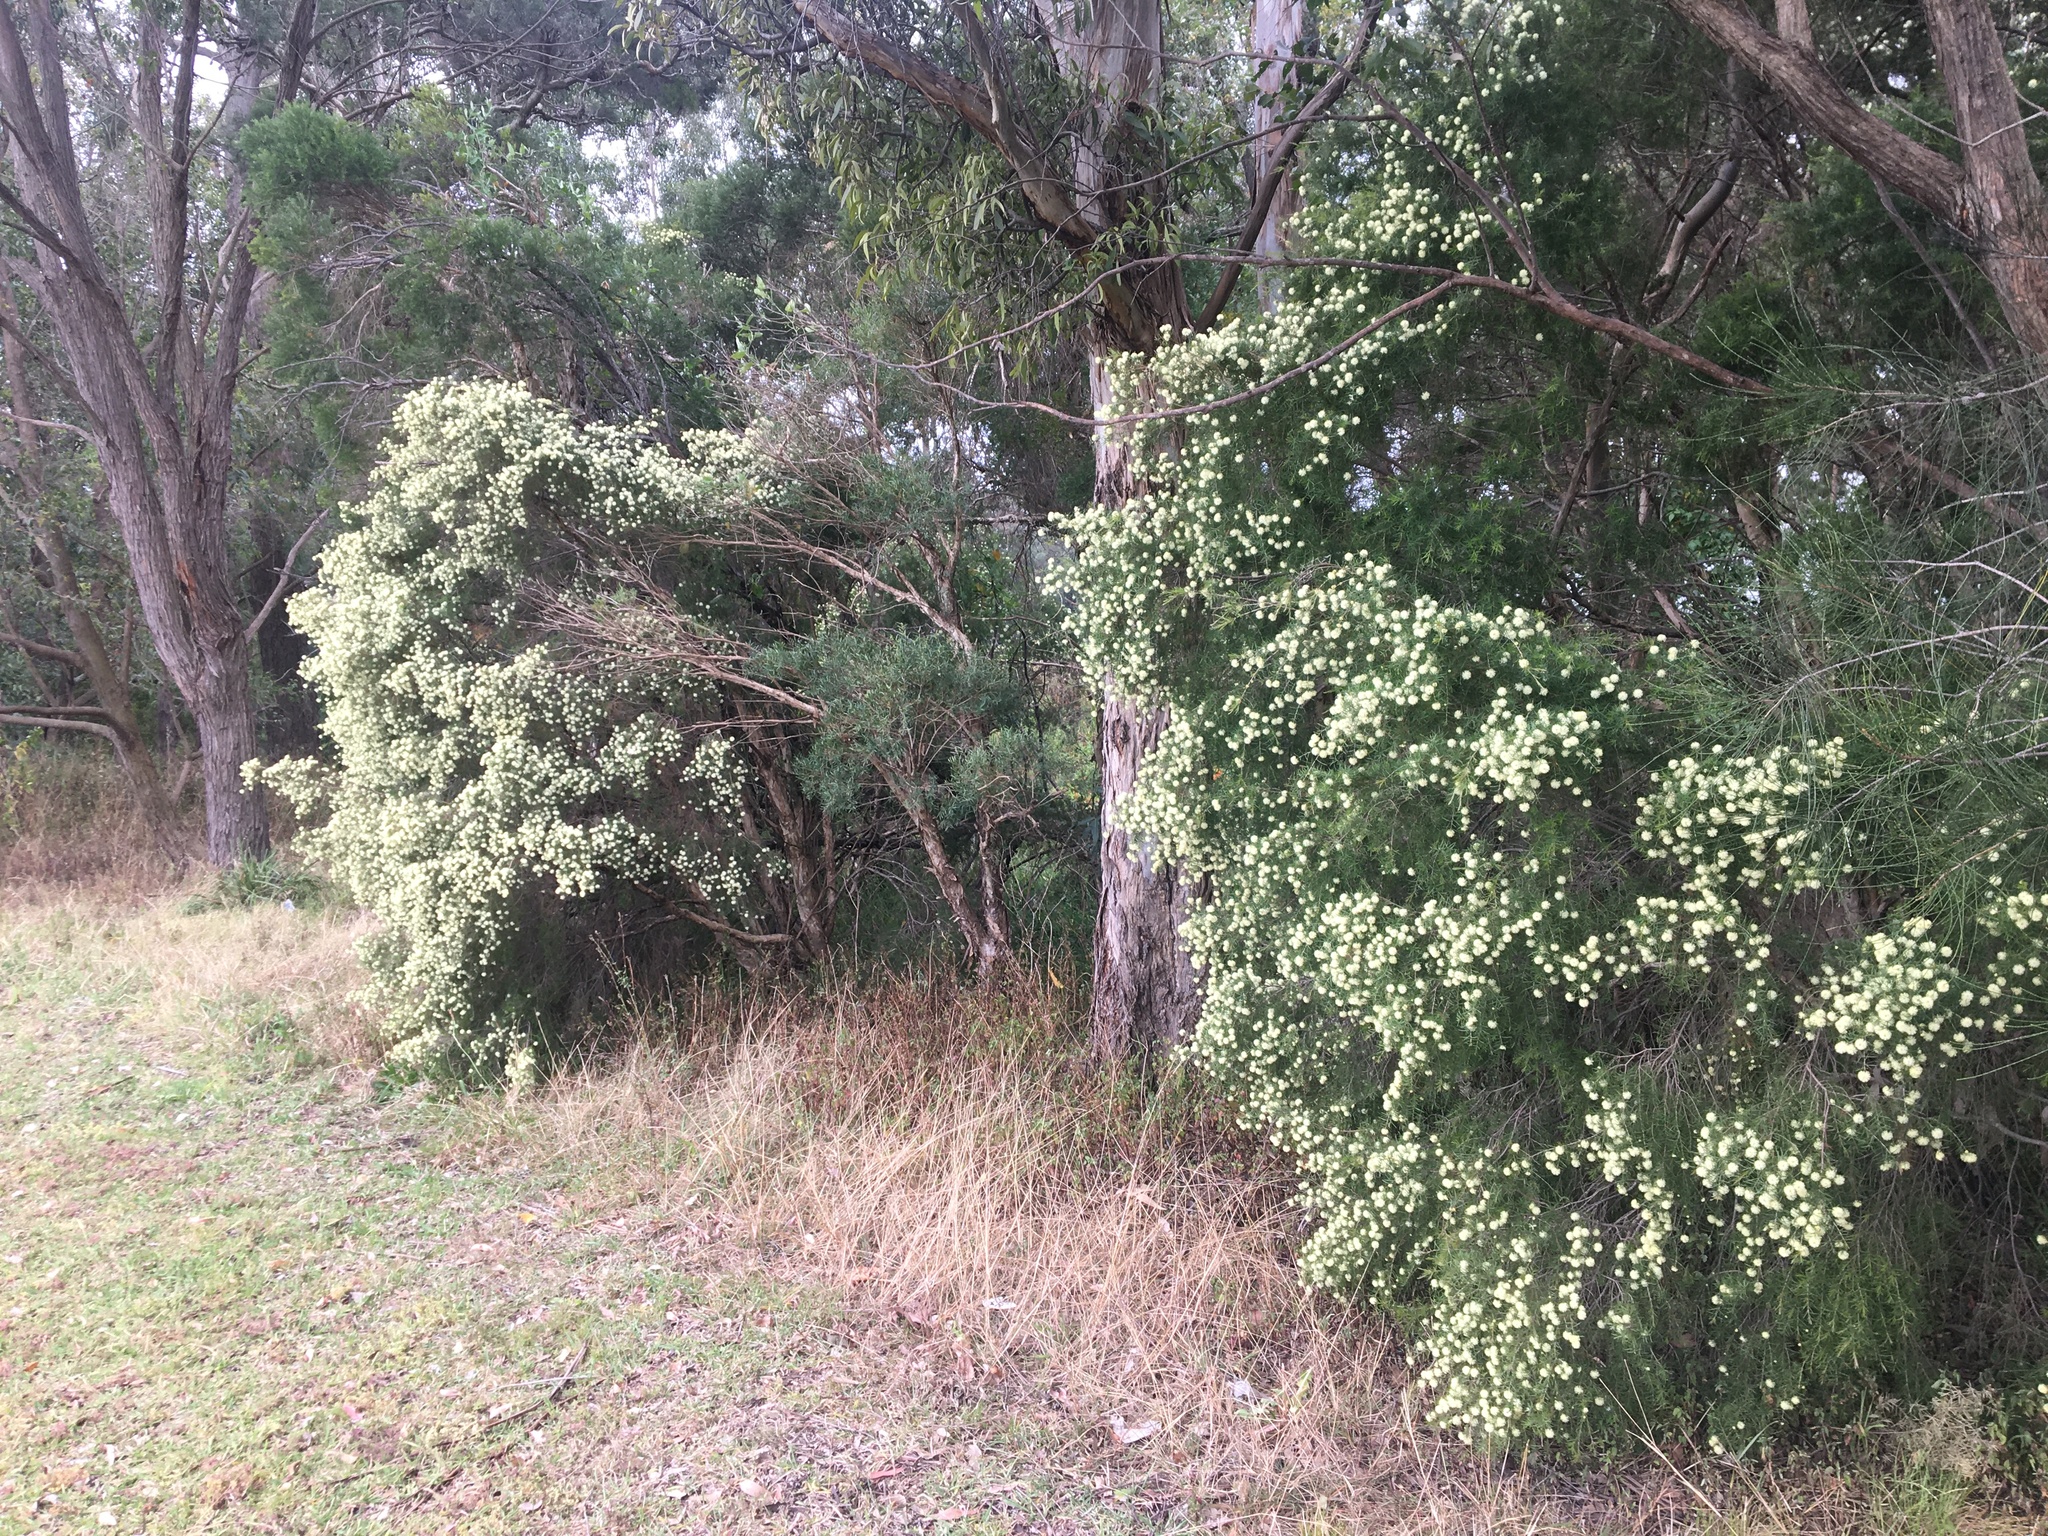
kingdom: Plantae
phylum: Tracheophyta
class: Magnoliopsida
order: Myrtales
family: Myrtaceae
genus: Melaleuca
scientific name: Melaleuca nodosa
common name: Prickly-leaf paperbark
